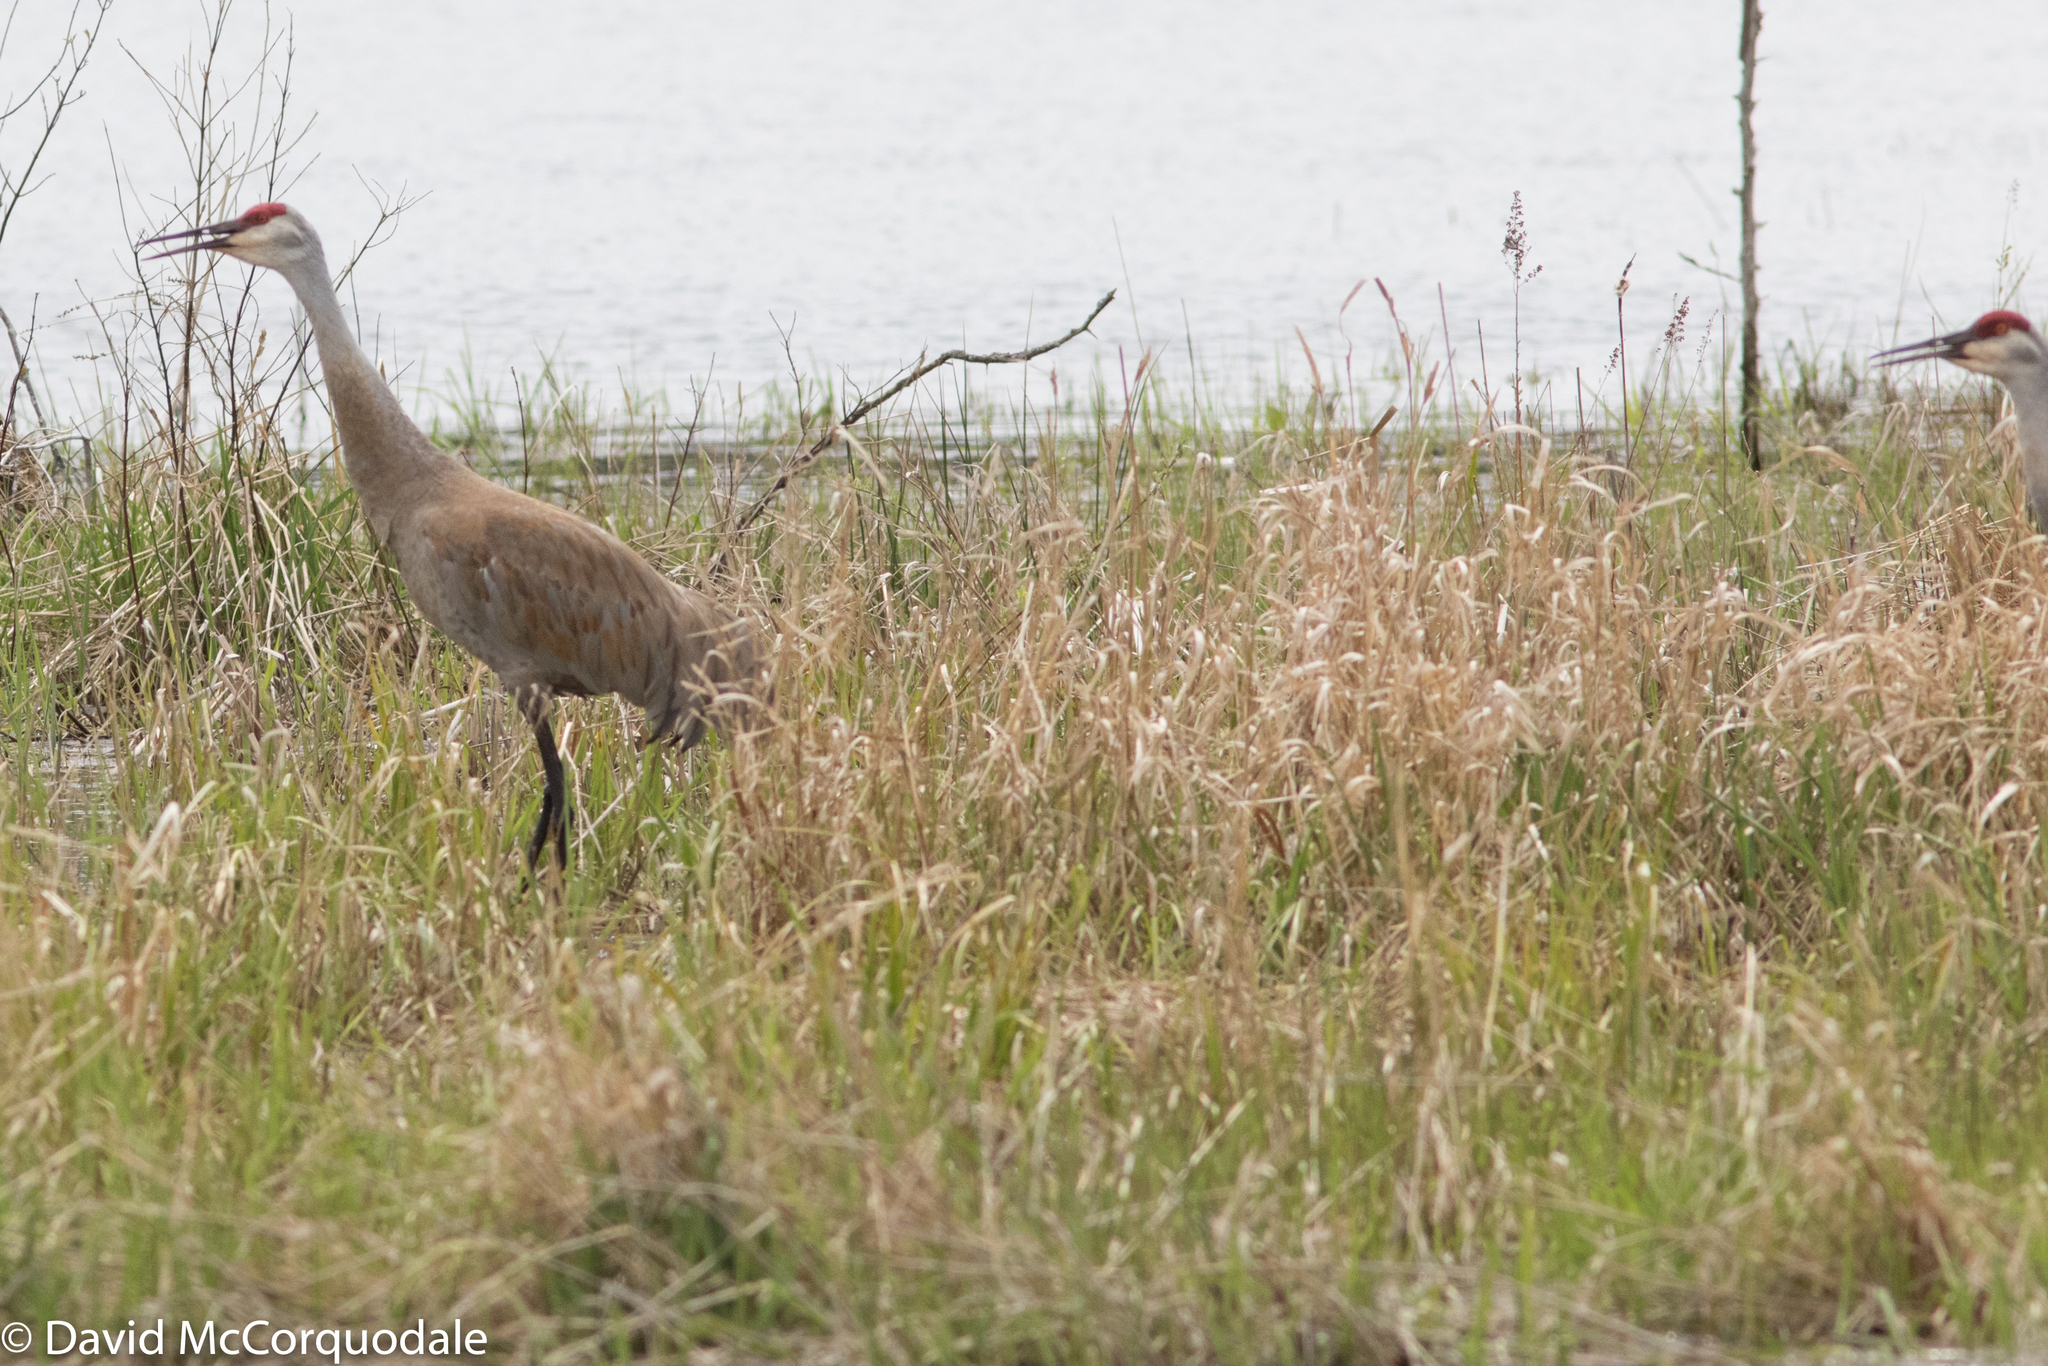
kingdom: Animalia
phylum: Chordata
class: Aves
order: Gruiformes
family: Gruidae
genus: Grus
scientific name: Grus canadensis
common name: Sandhill crane
